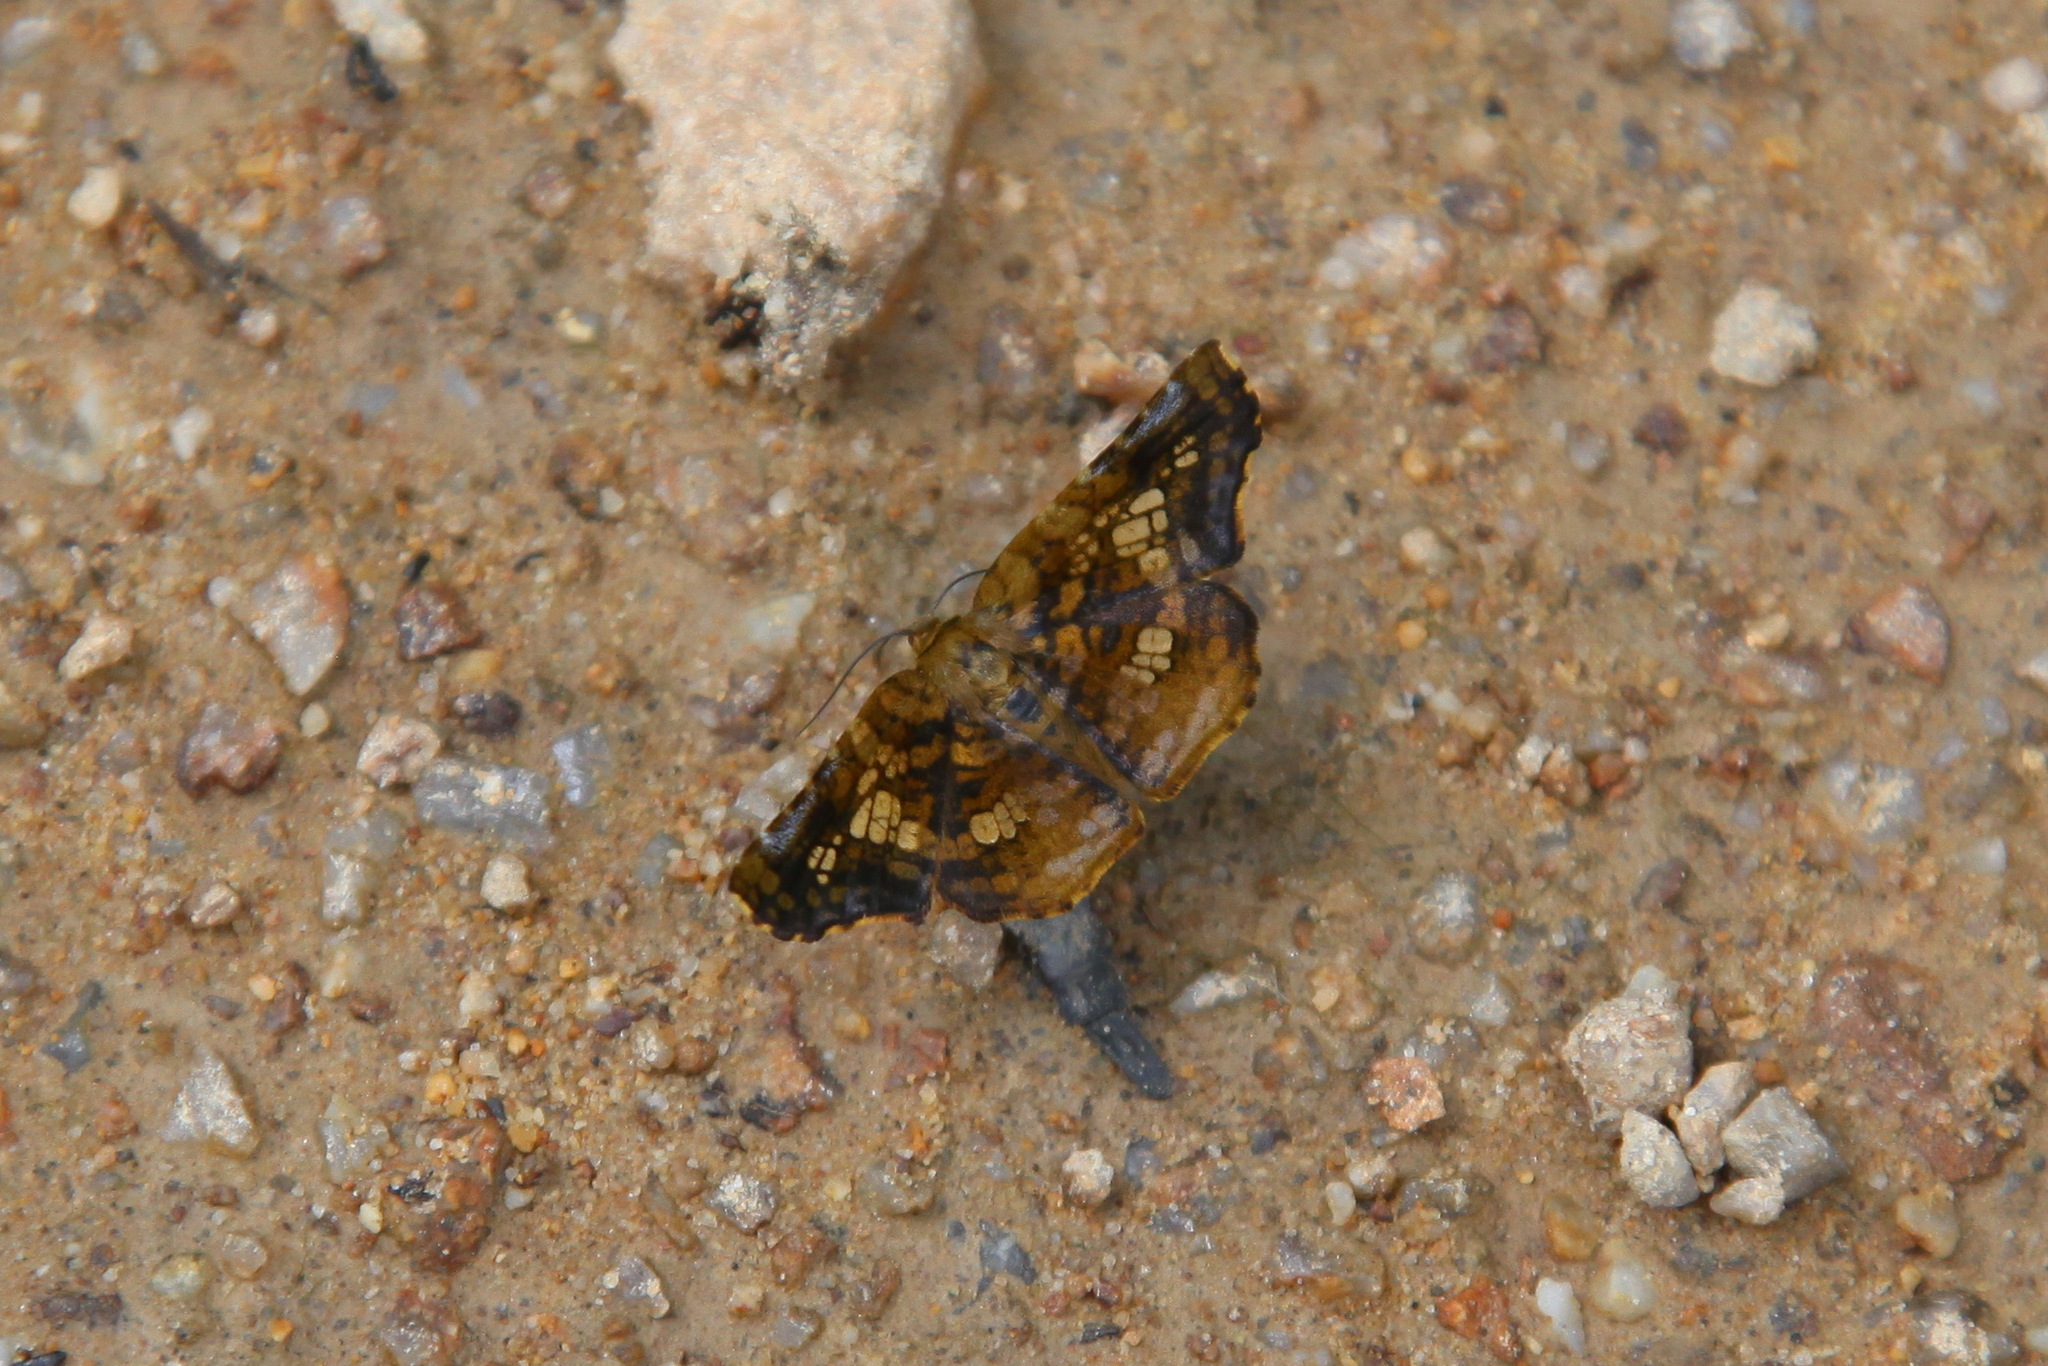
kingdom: Animalia
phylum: Arthropoda
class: Insecta
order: Lepidoptera
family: Thyrididae
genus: Sericophara
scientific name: Sericophara guttata
